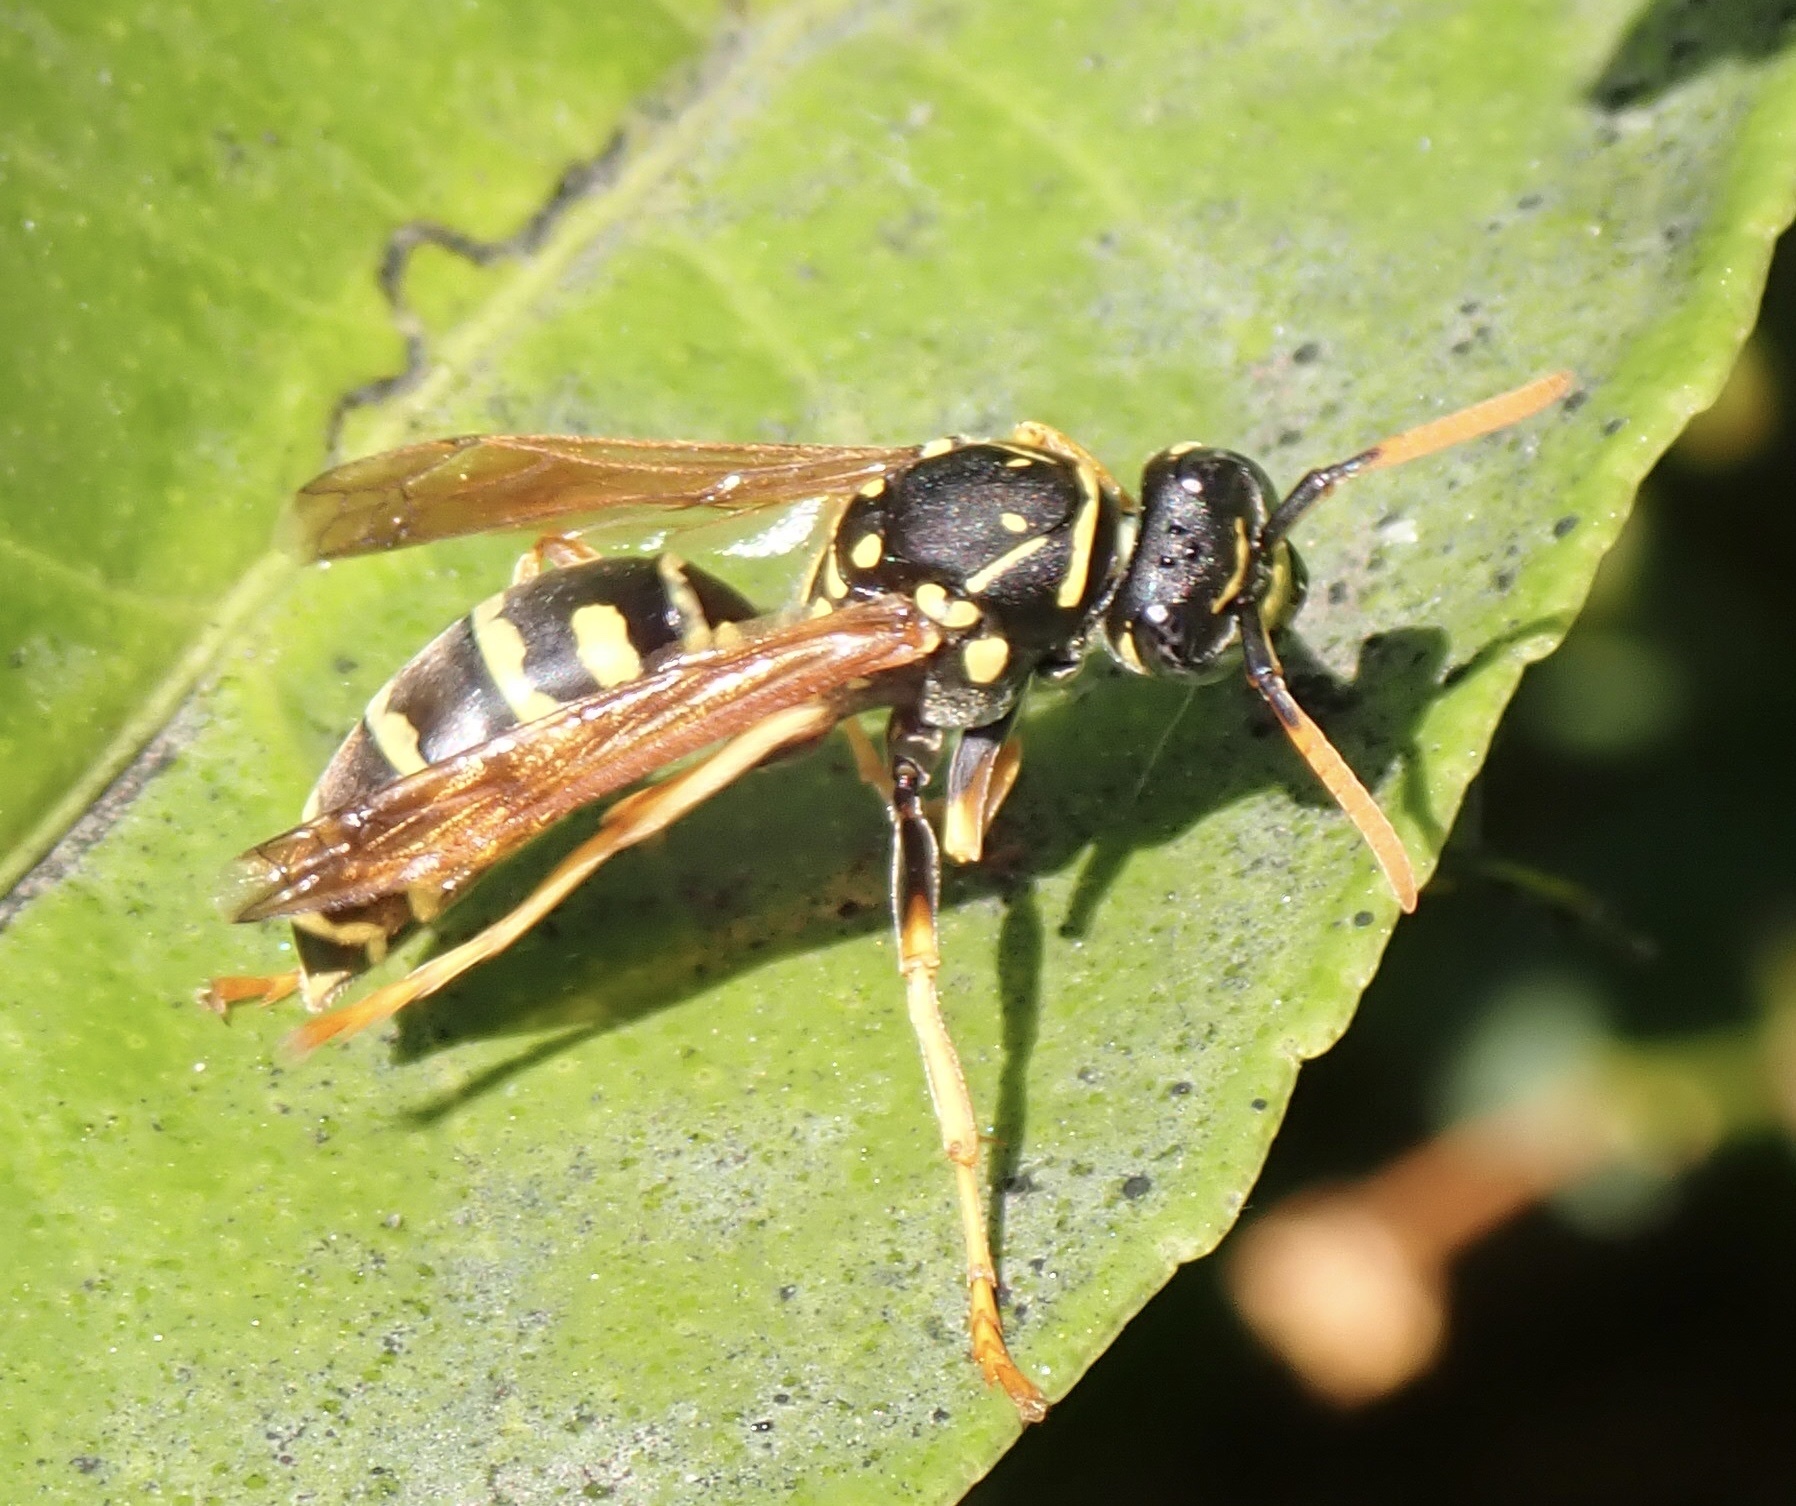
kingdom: Animalia
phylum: Arthropoda
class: Insecta
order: Hymenoptera
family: Eumenidae
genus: Polistes
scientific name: Polistes dominula
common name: Paper wasp
